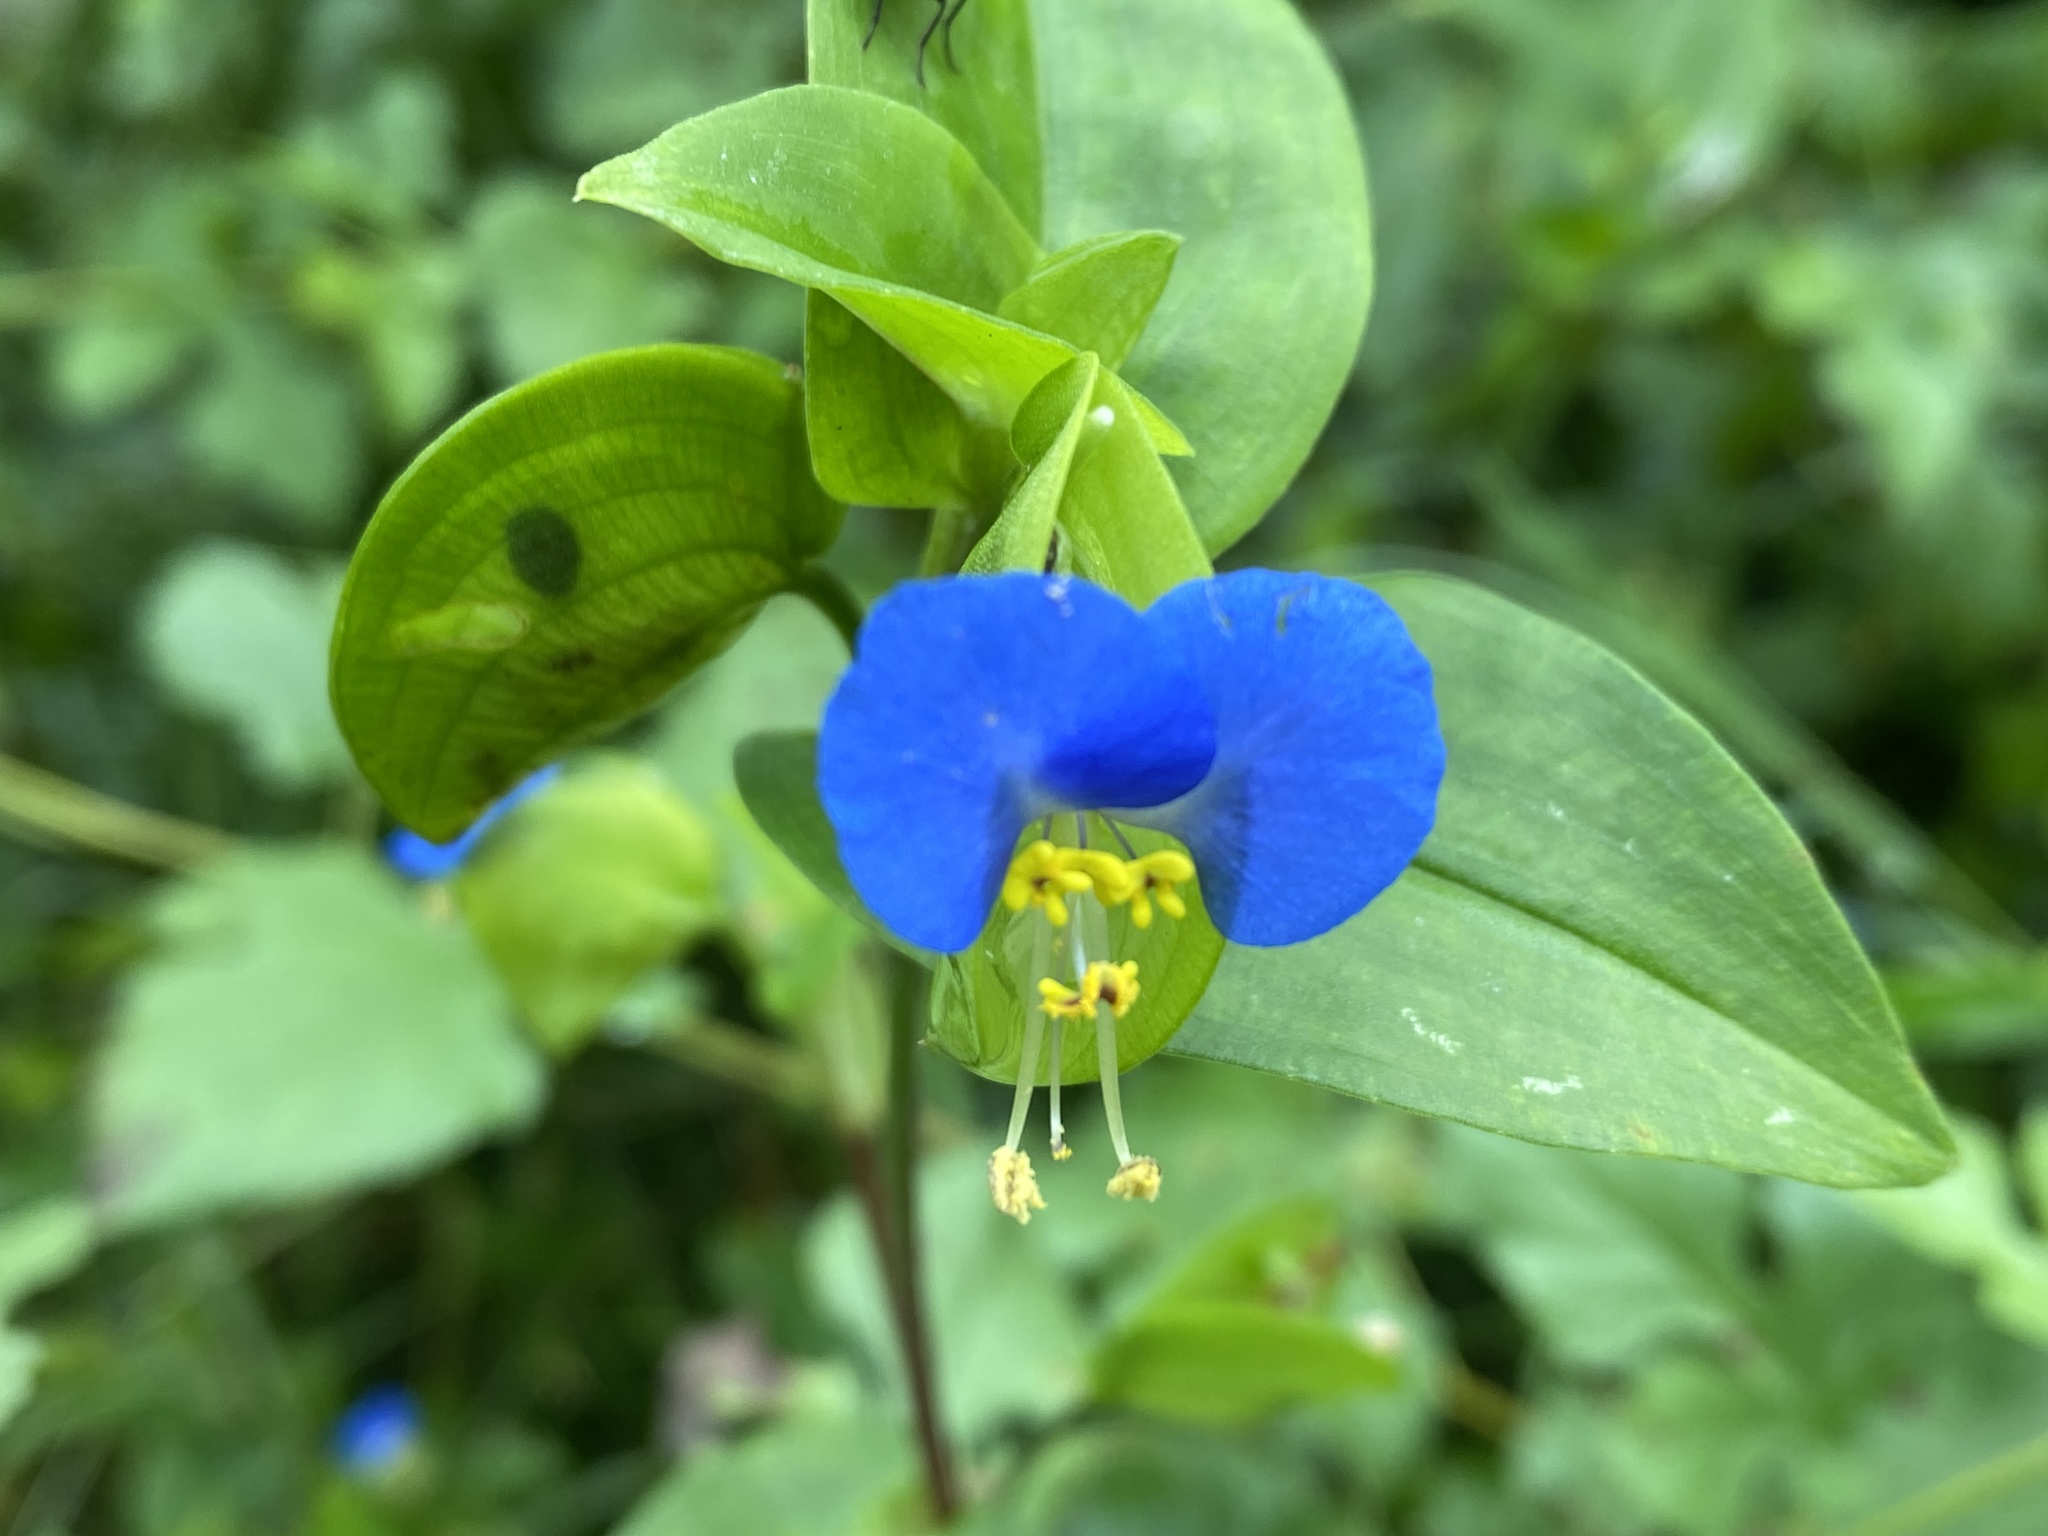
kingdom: Plantae
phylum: Tracheophyta
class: Liliopsida
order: Commelinales
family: Commelinaceae
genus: Commelina
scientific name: Commelina communis
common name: Asiatic dayflower
